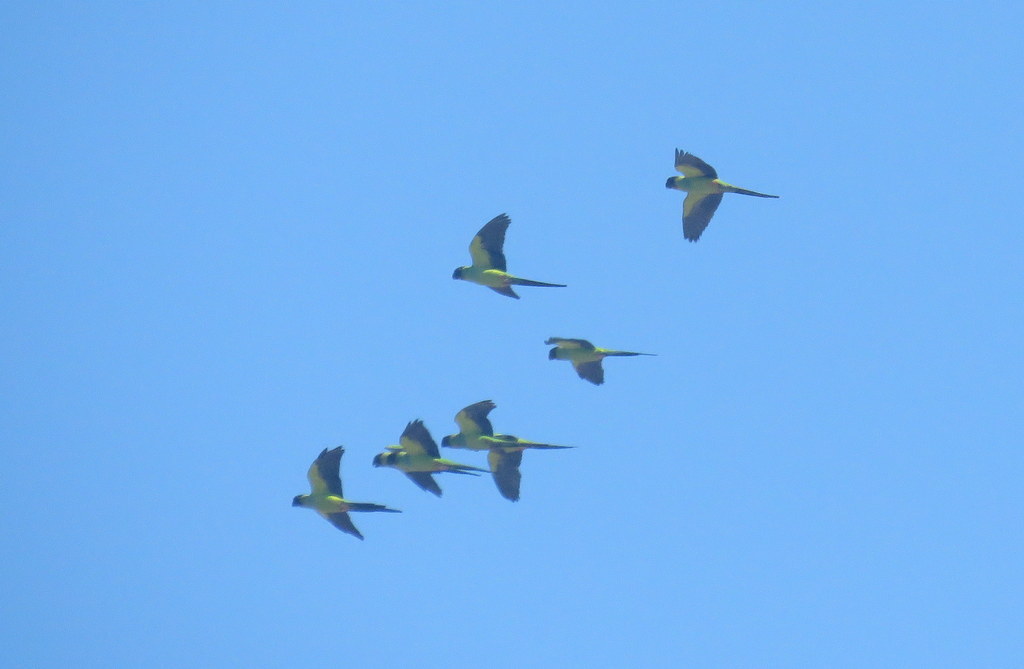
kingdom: Animalia
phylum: Chordata
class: Aves
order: Psittaciformes
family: Psittacidae
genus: Nandayus
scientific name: Nandayus nenday
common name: Nanday parakeet
